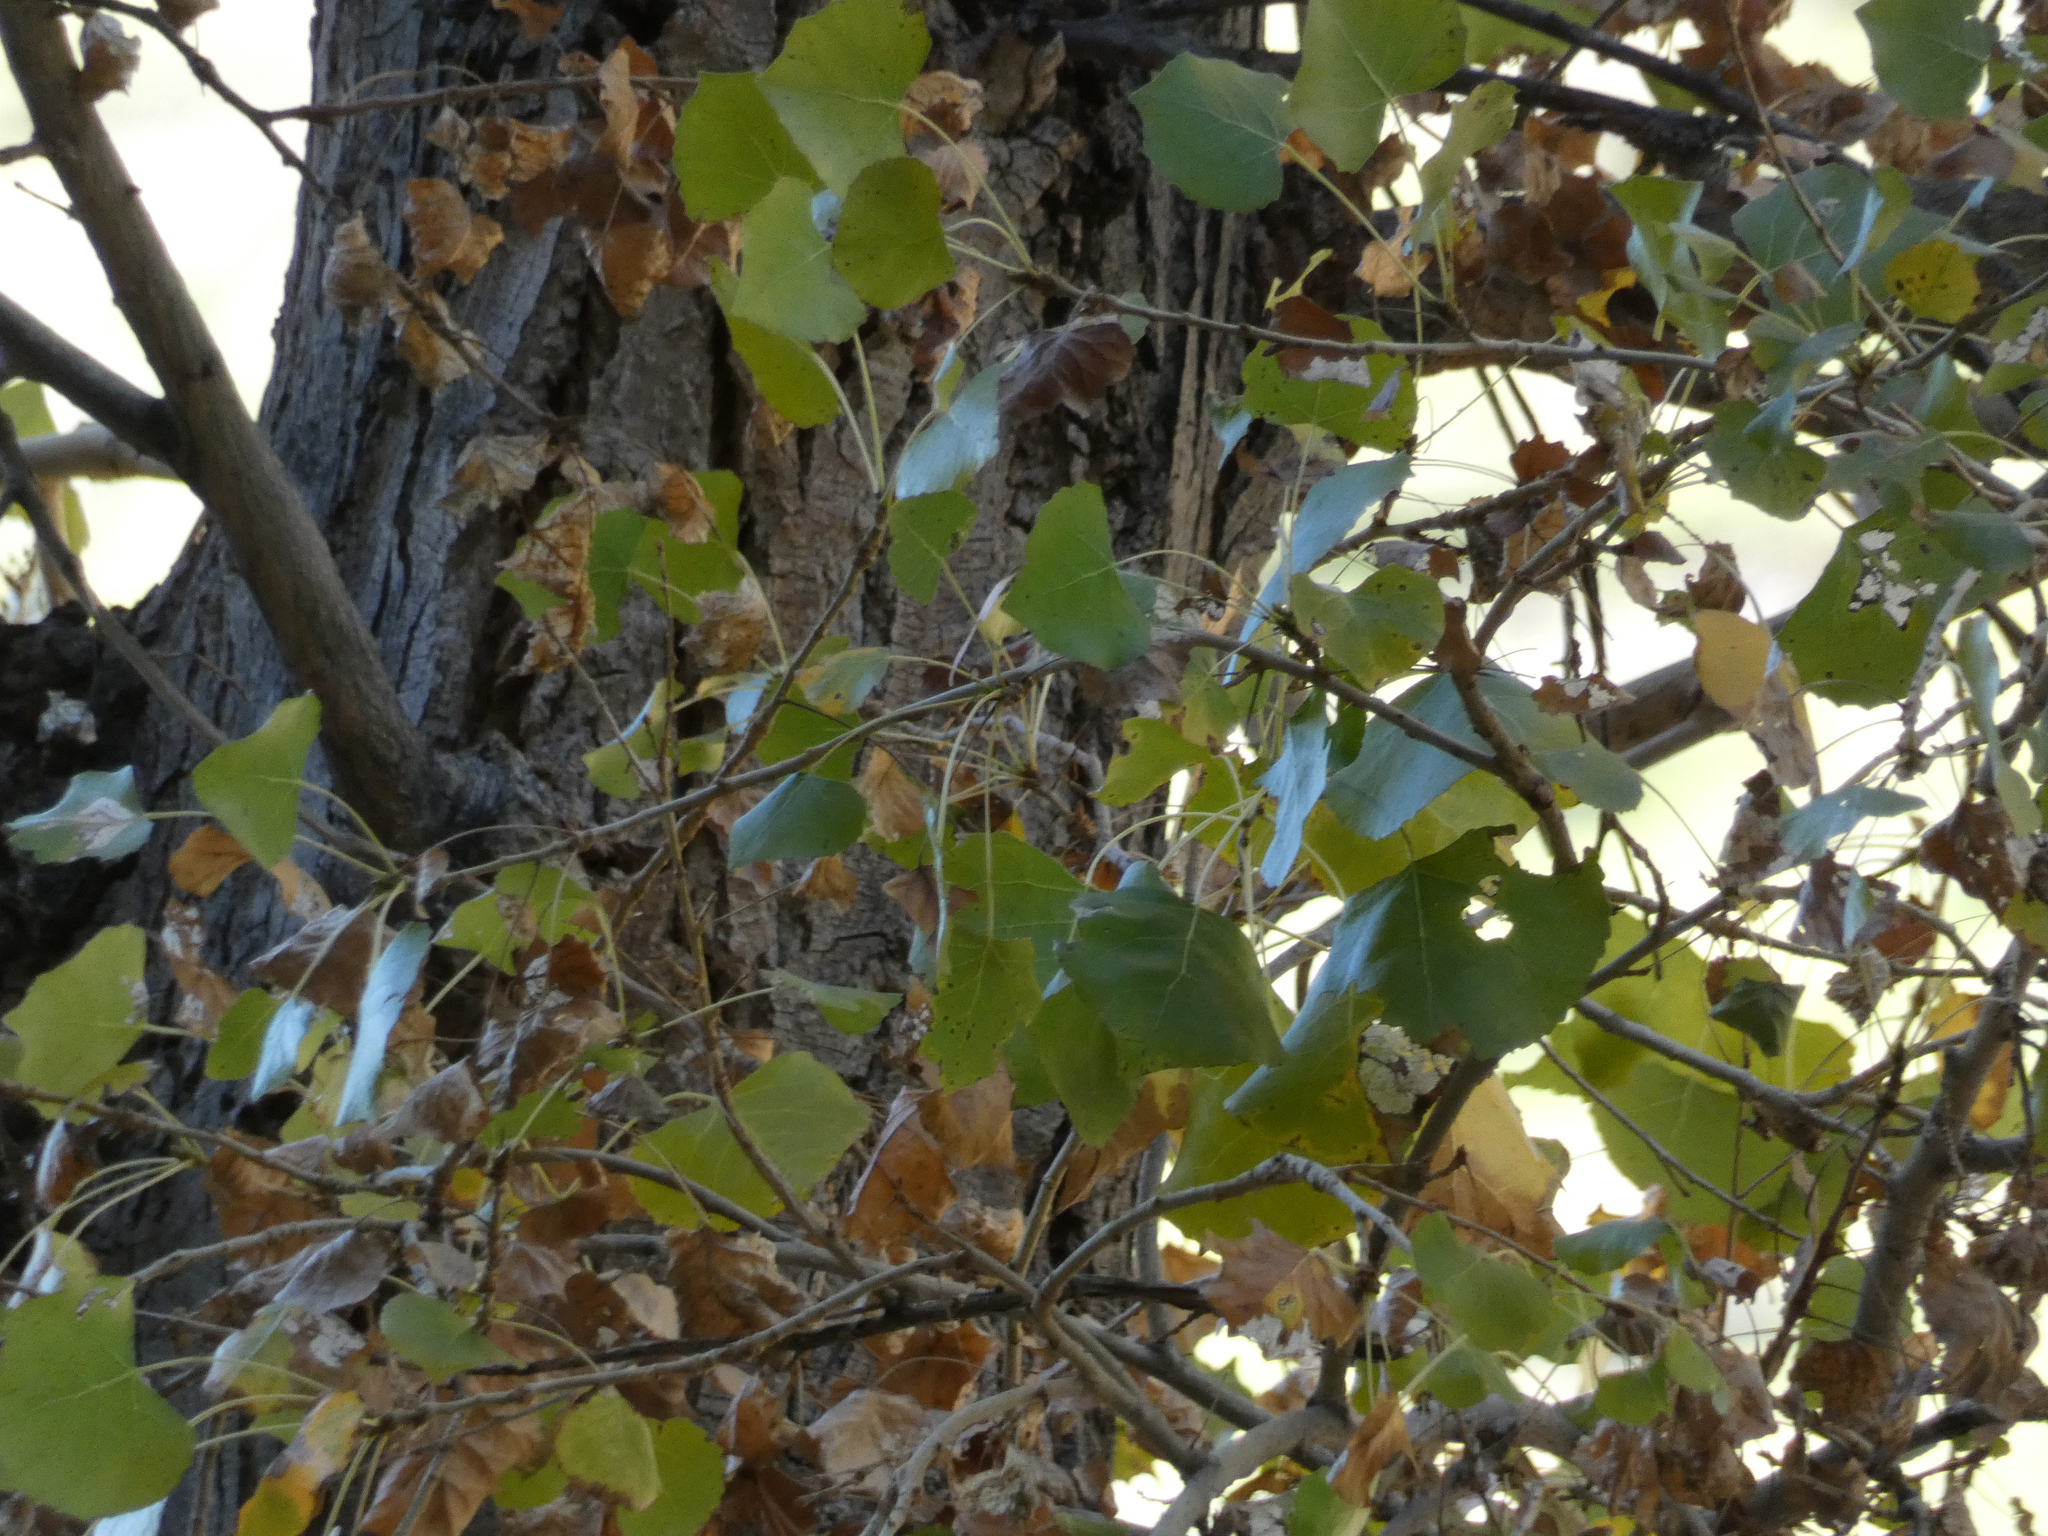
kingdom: Plantae
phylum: Tracheophyta
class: Magnoliopsida
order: Malpighiales
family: Salicaceae
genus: Populus
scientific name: Populus fremontii
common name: Fremont's cottonwood
